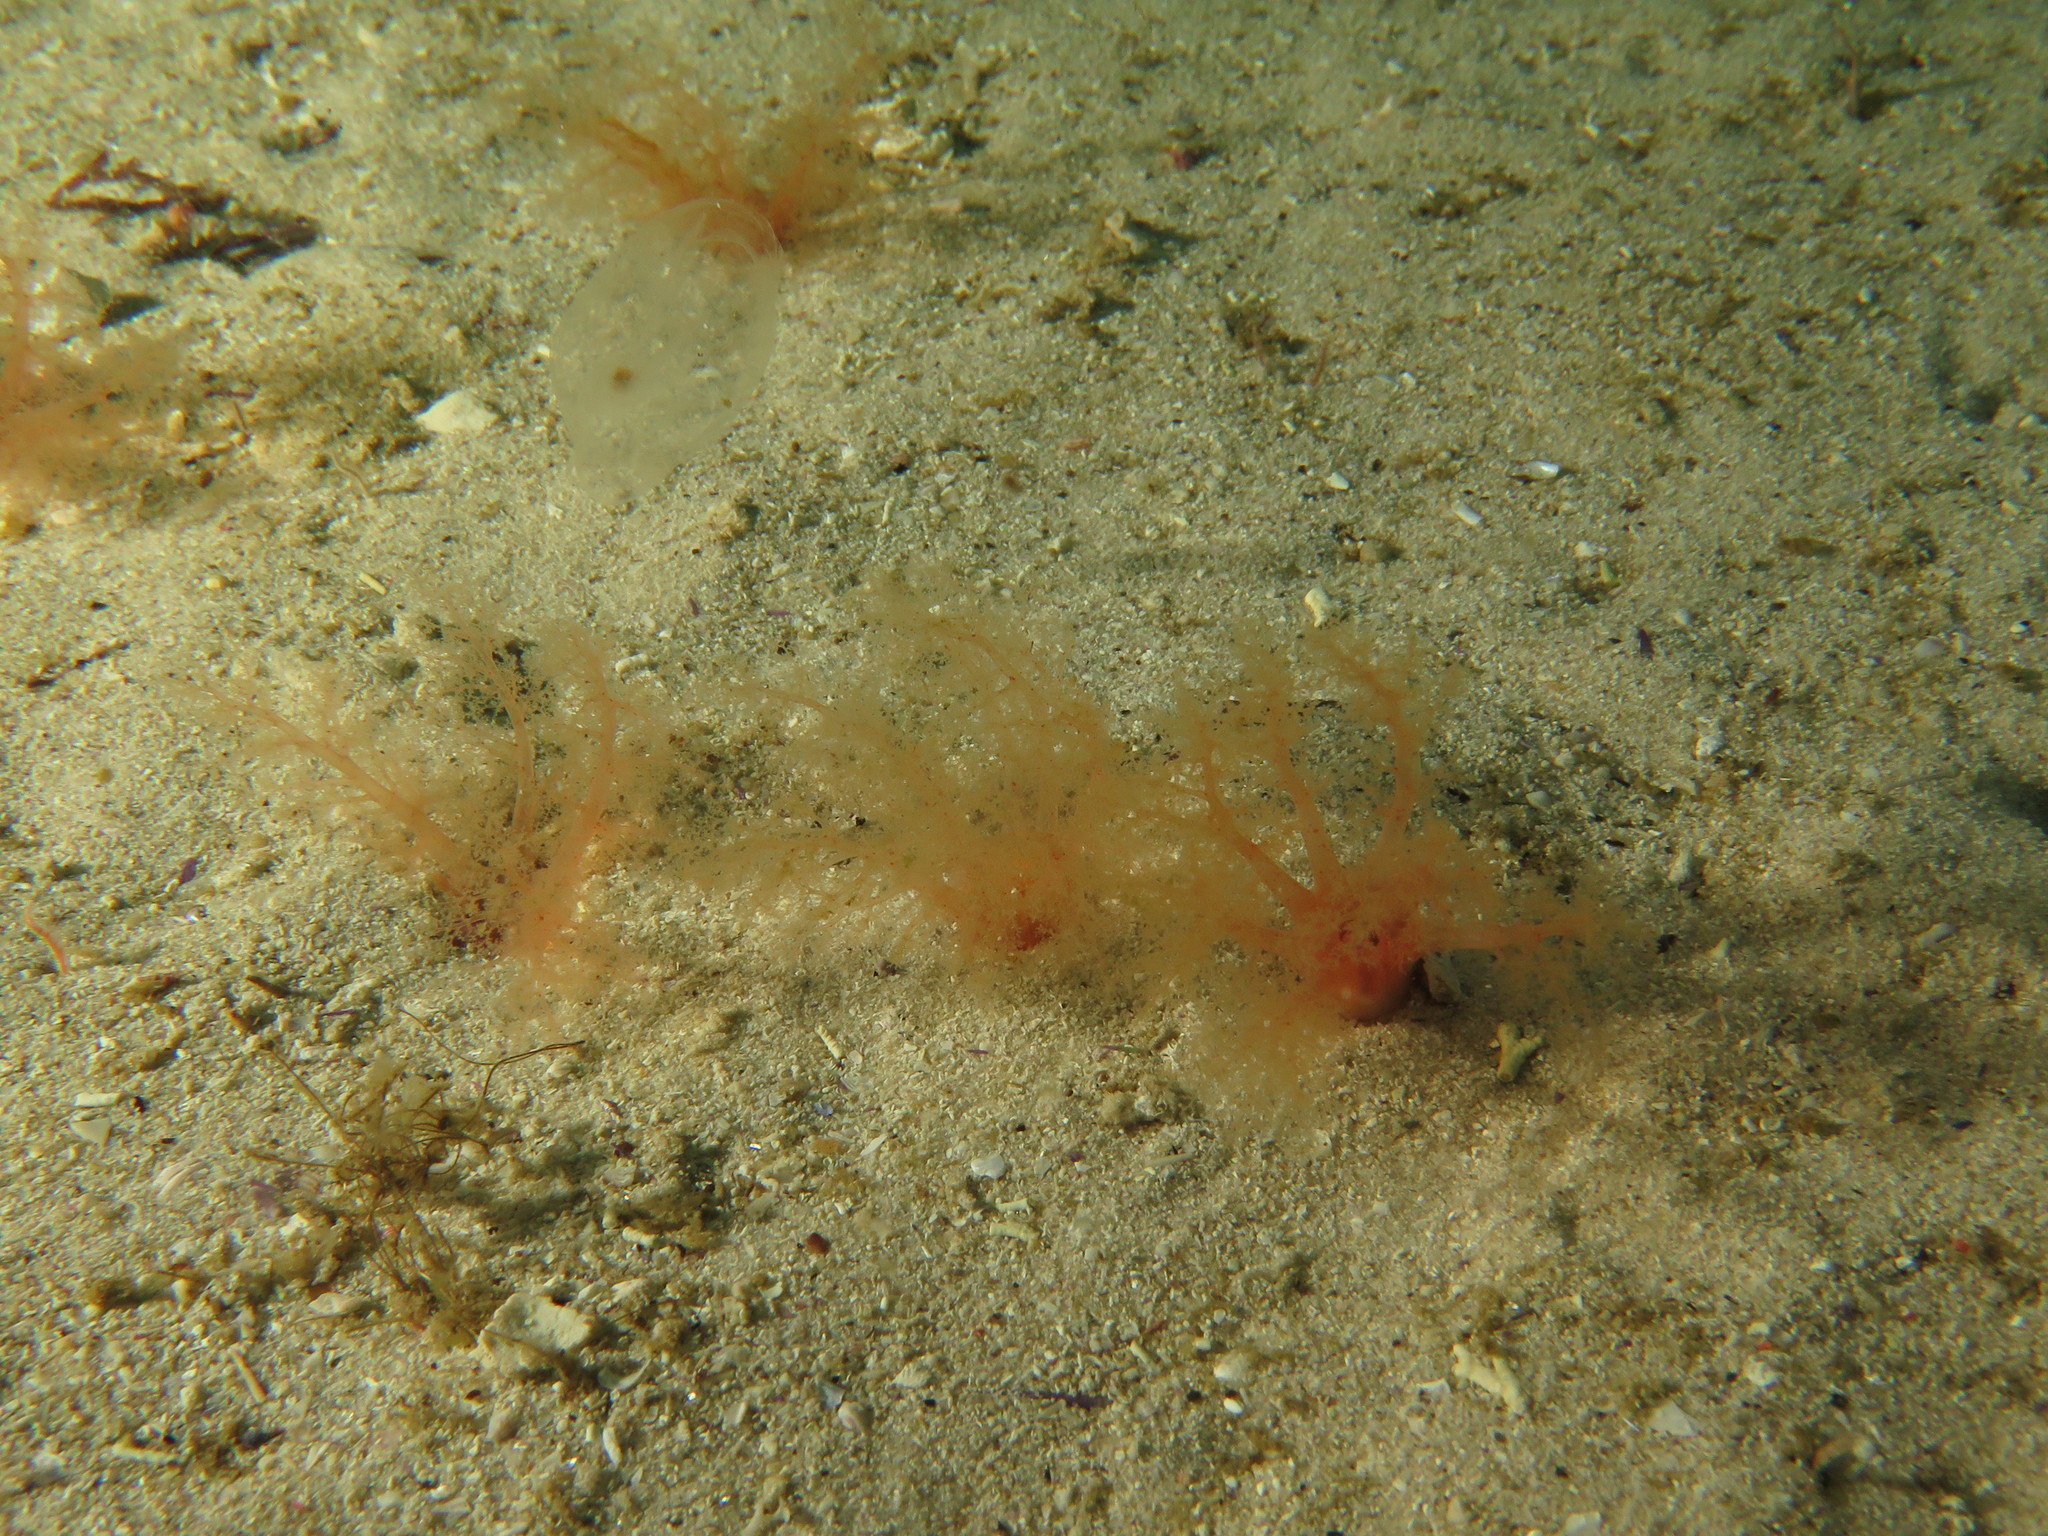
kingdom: Animalia
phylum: Echinodermata
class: Holothuroidea
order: Dendrochirotida
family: Phyllophoridae
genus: Thyone
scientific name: Thyone aurea
